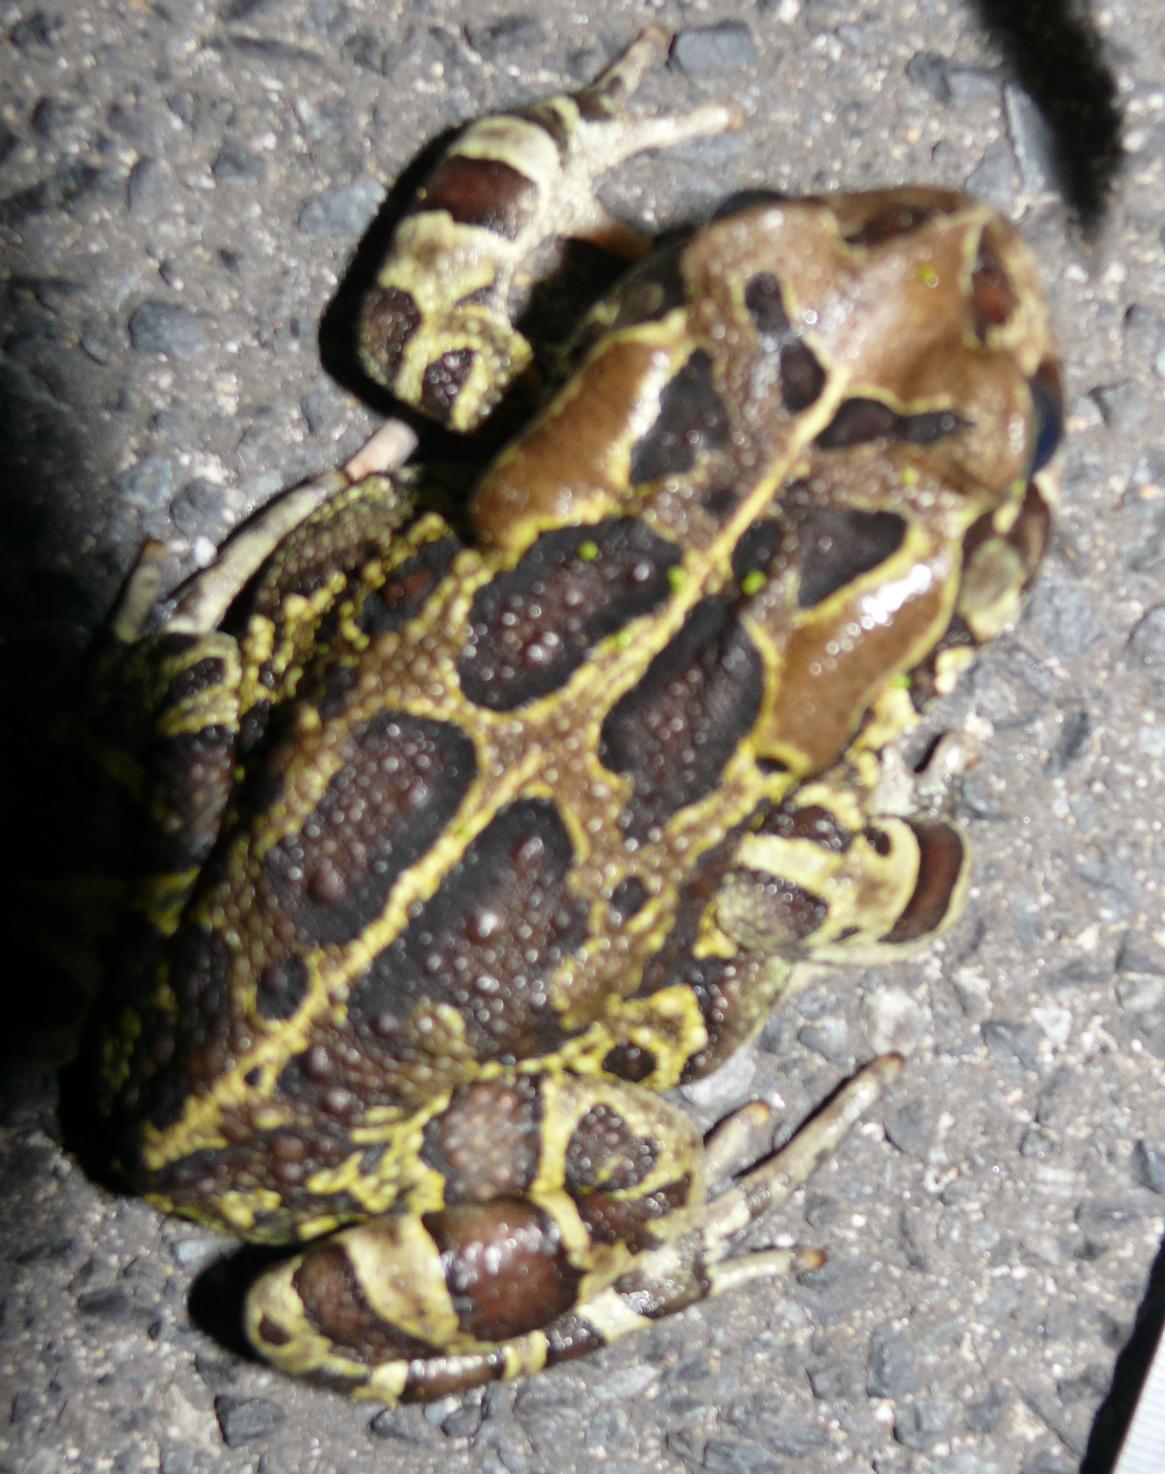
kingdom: Animalia
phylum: Chordata
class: Amphibia
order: Anura
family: Bufonidae
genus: Sclerophrys
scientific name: Sclerophrys pantherina
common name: Panther toad
